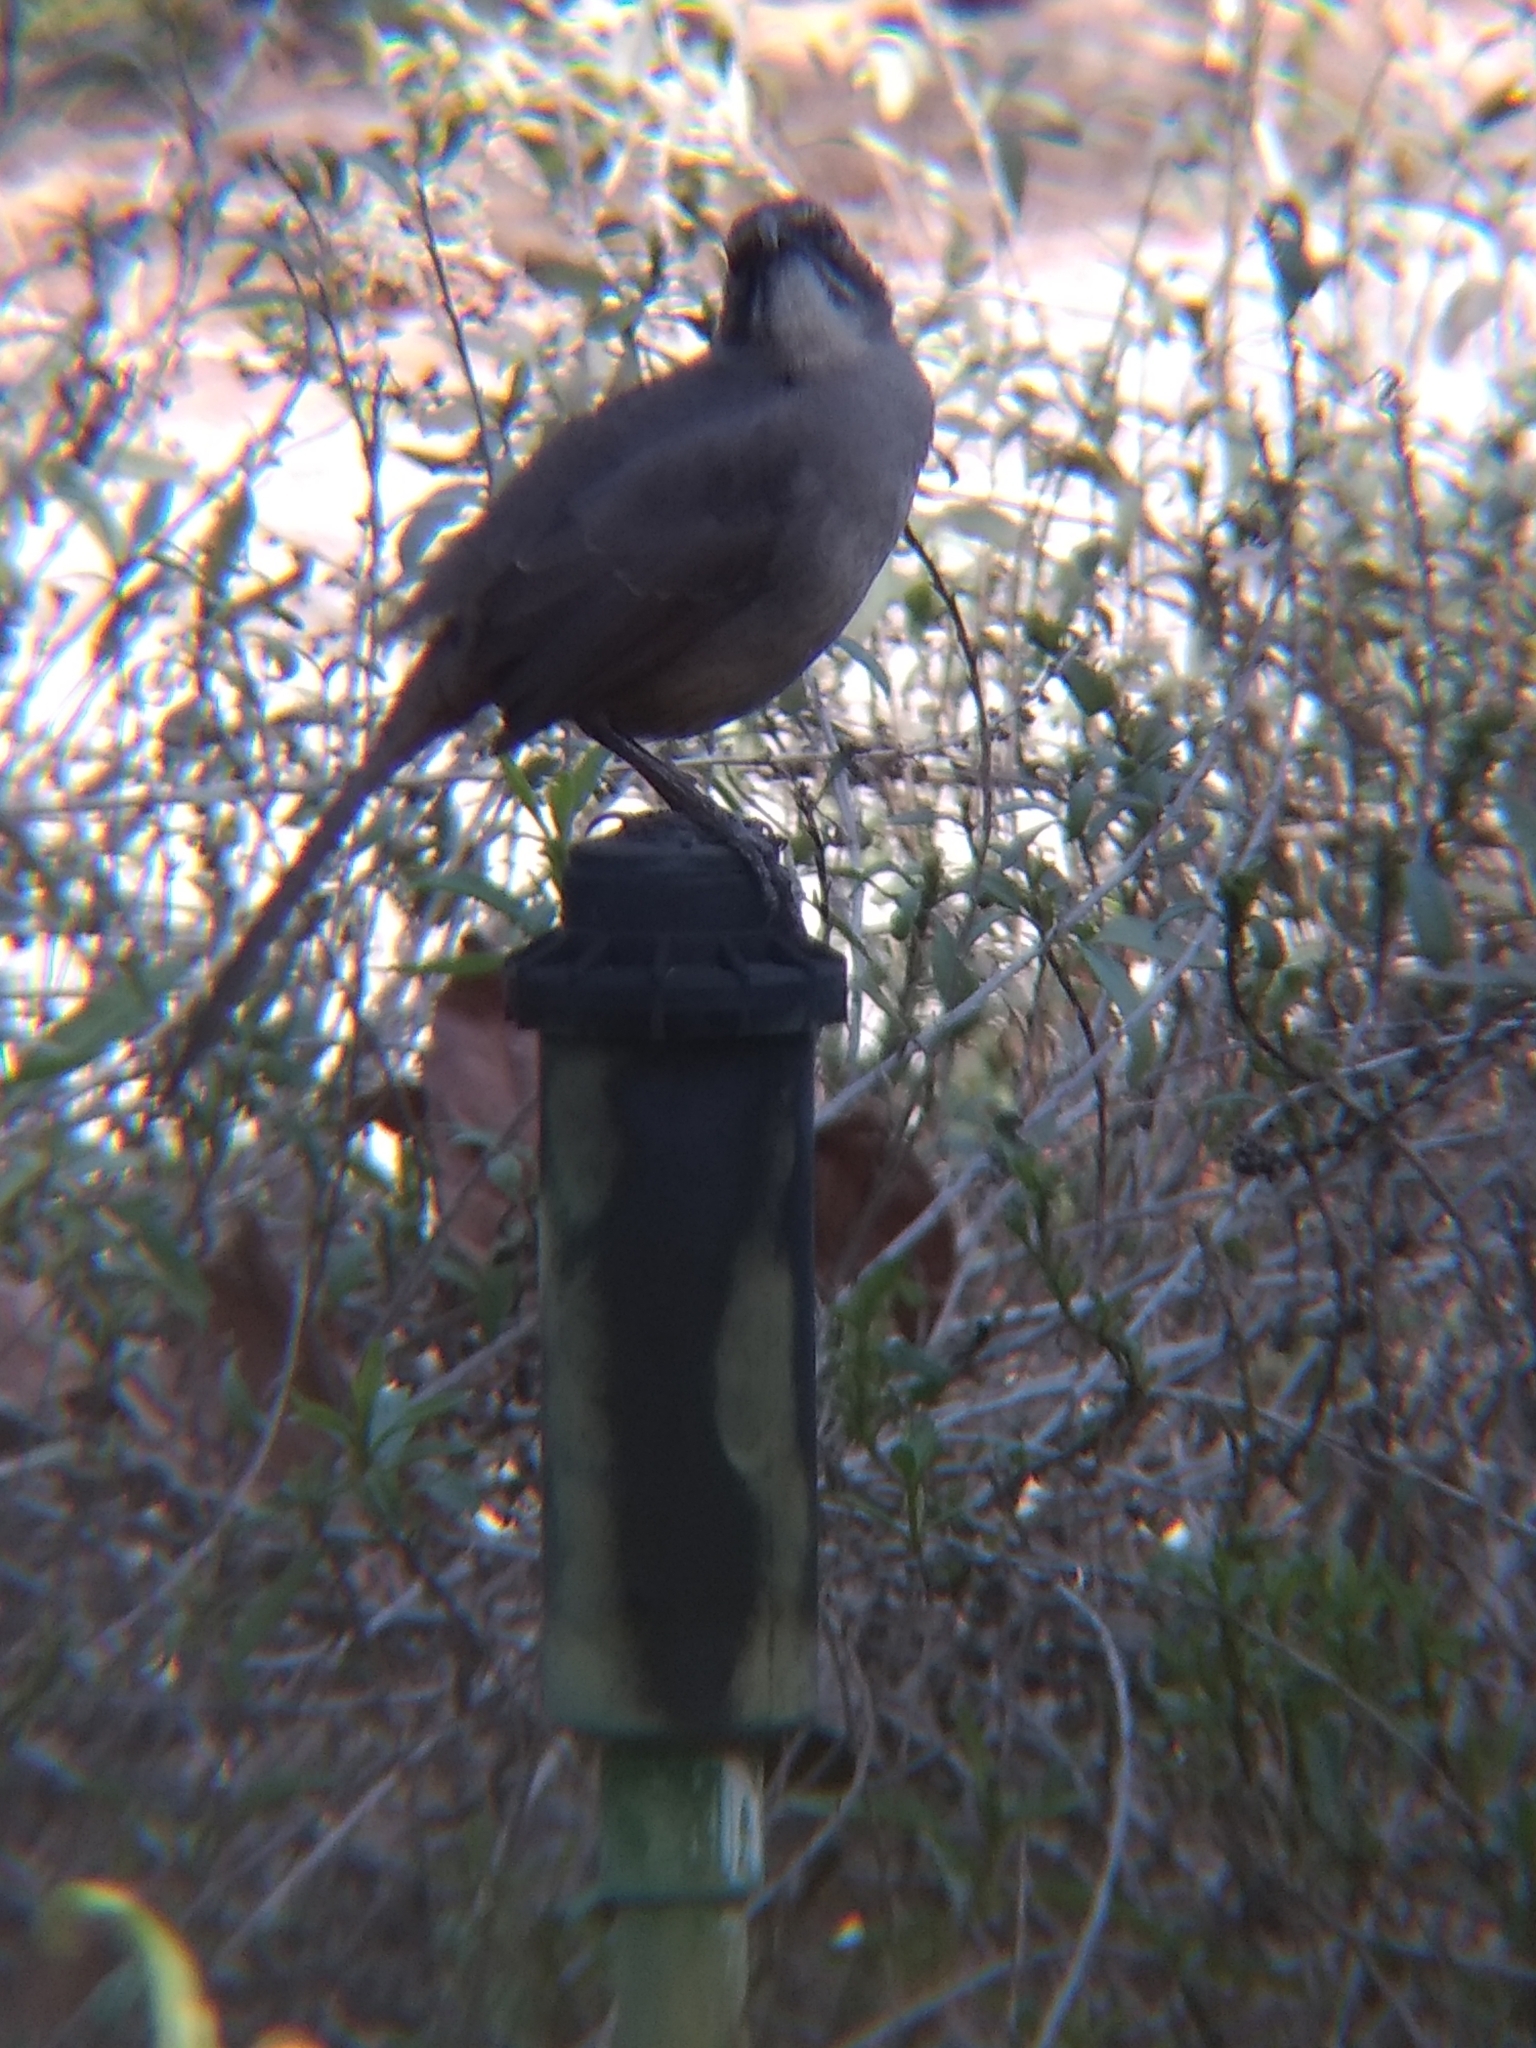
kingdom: Animalia
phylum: Chordata
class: Aves
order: Passeriformes
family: Mimidae
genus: Toxostoma
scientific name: Toxostoma redivivum
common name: California thrasher
